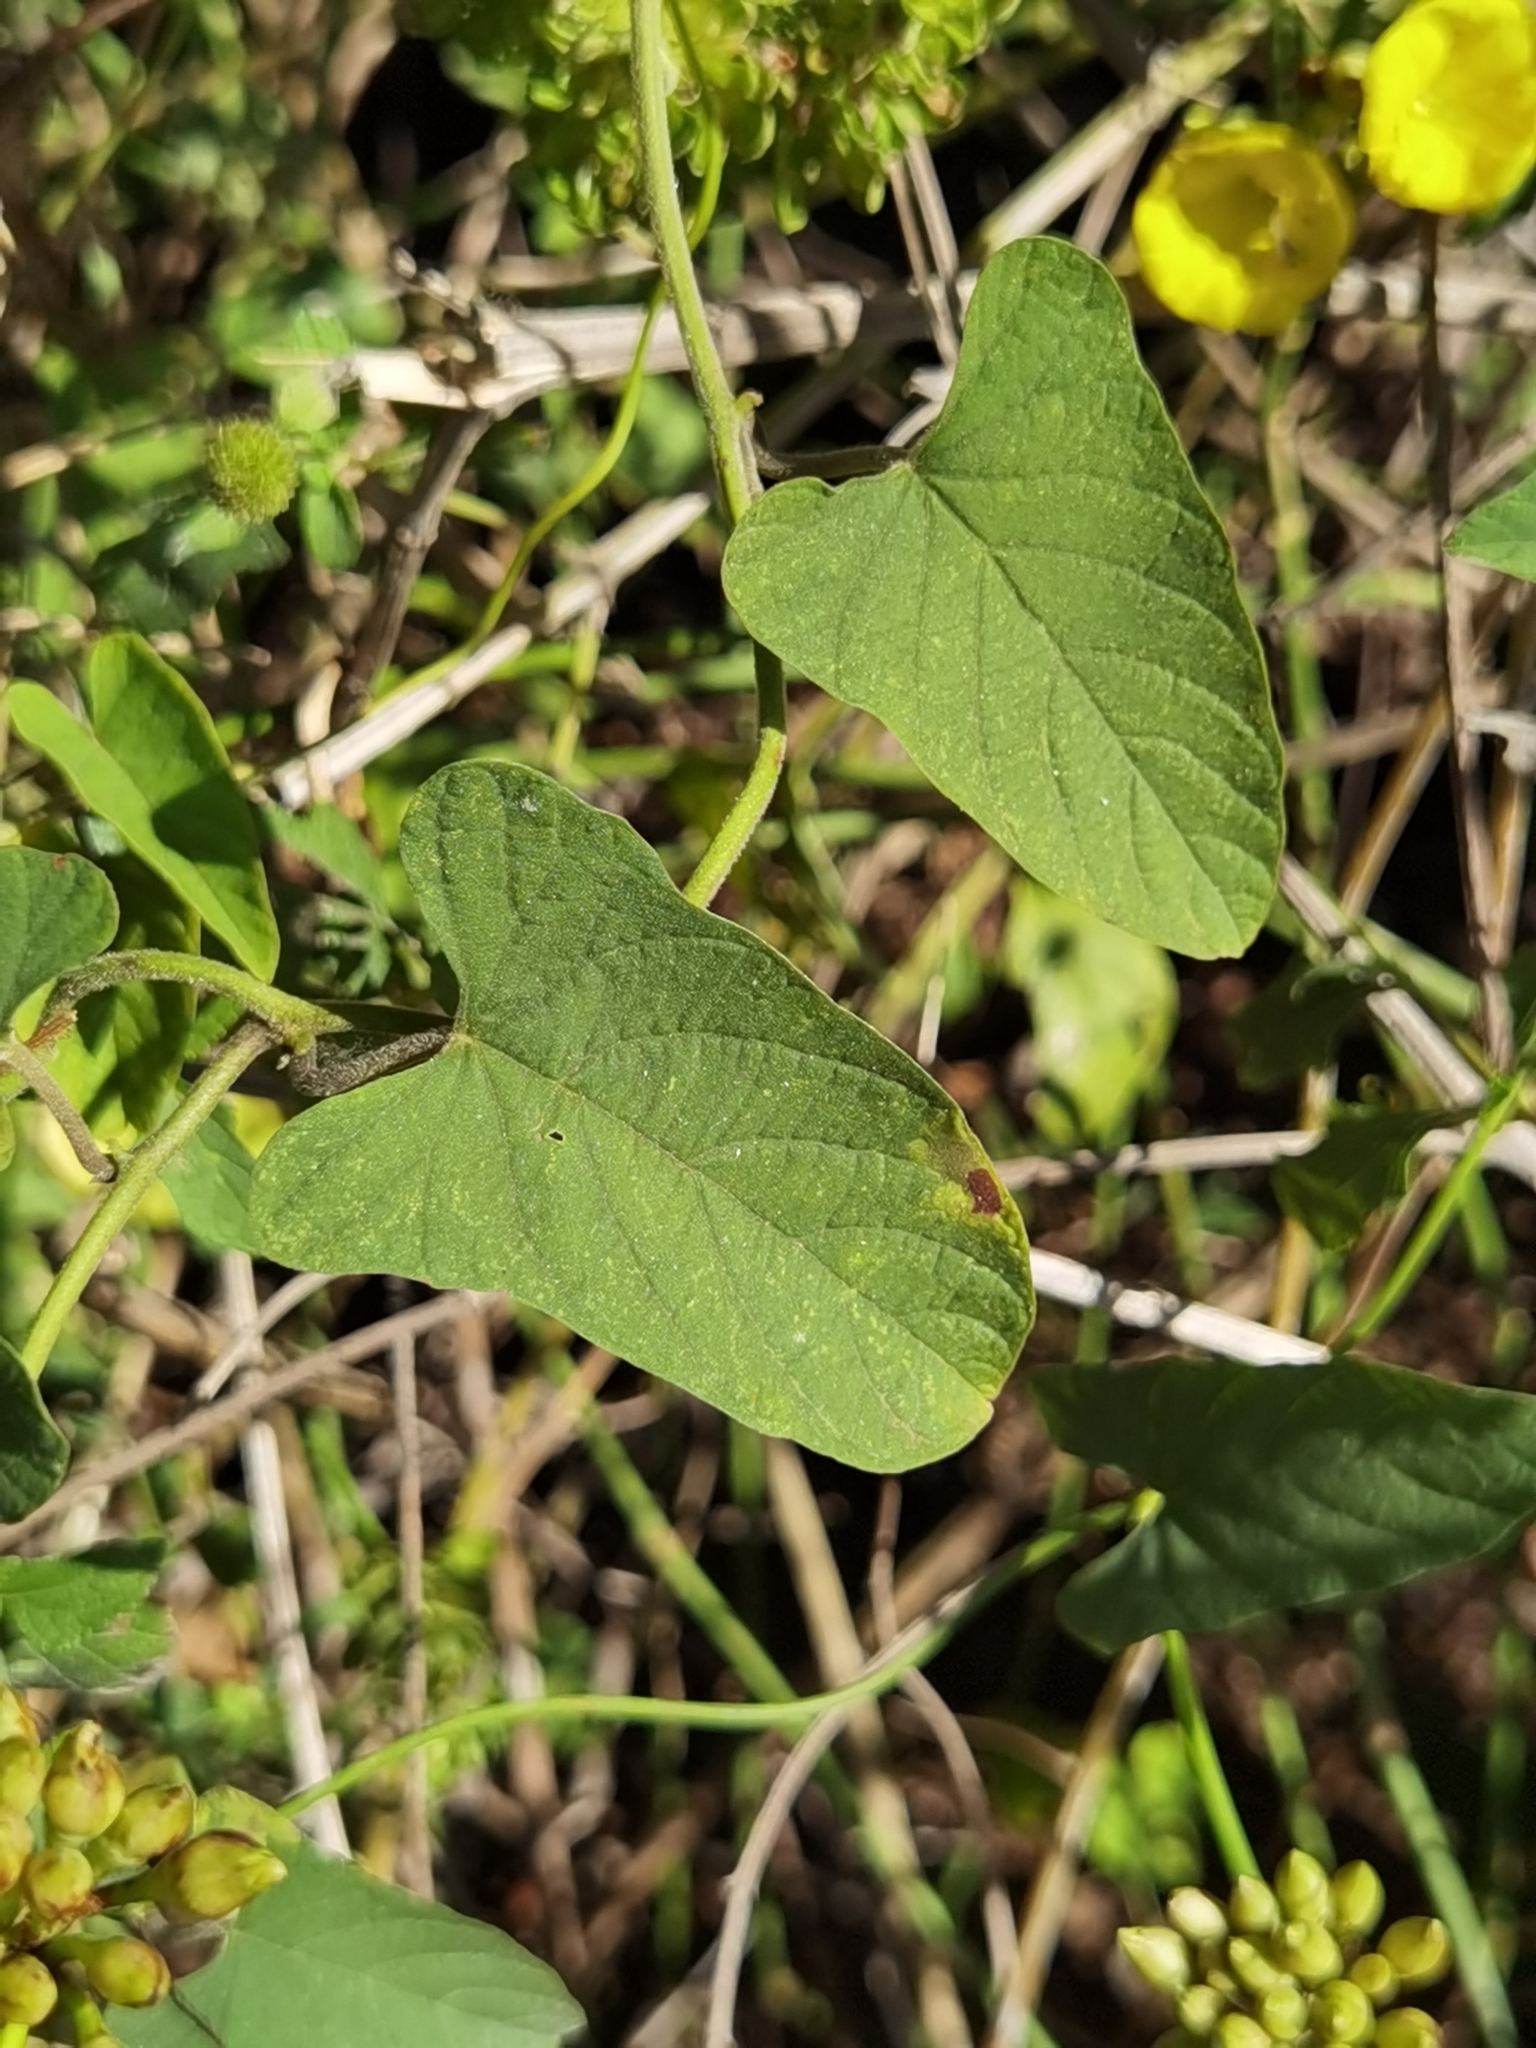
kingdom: Plantae
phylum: Tracheophyta
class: Magnoliopsida
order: Solanales
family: Convolvulaceae
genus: Camonea
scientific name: Camonea umbellata
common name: Hogvine
